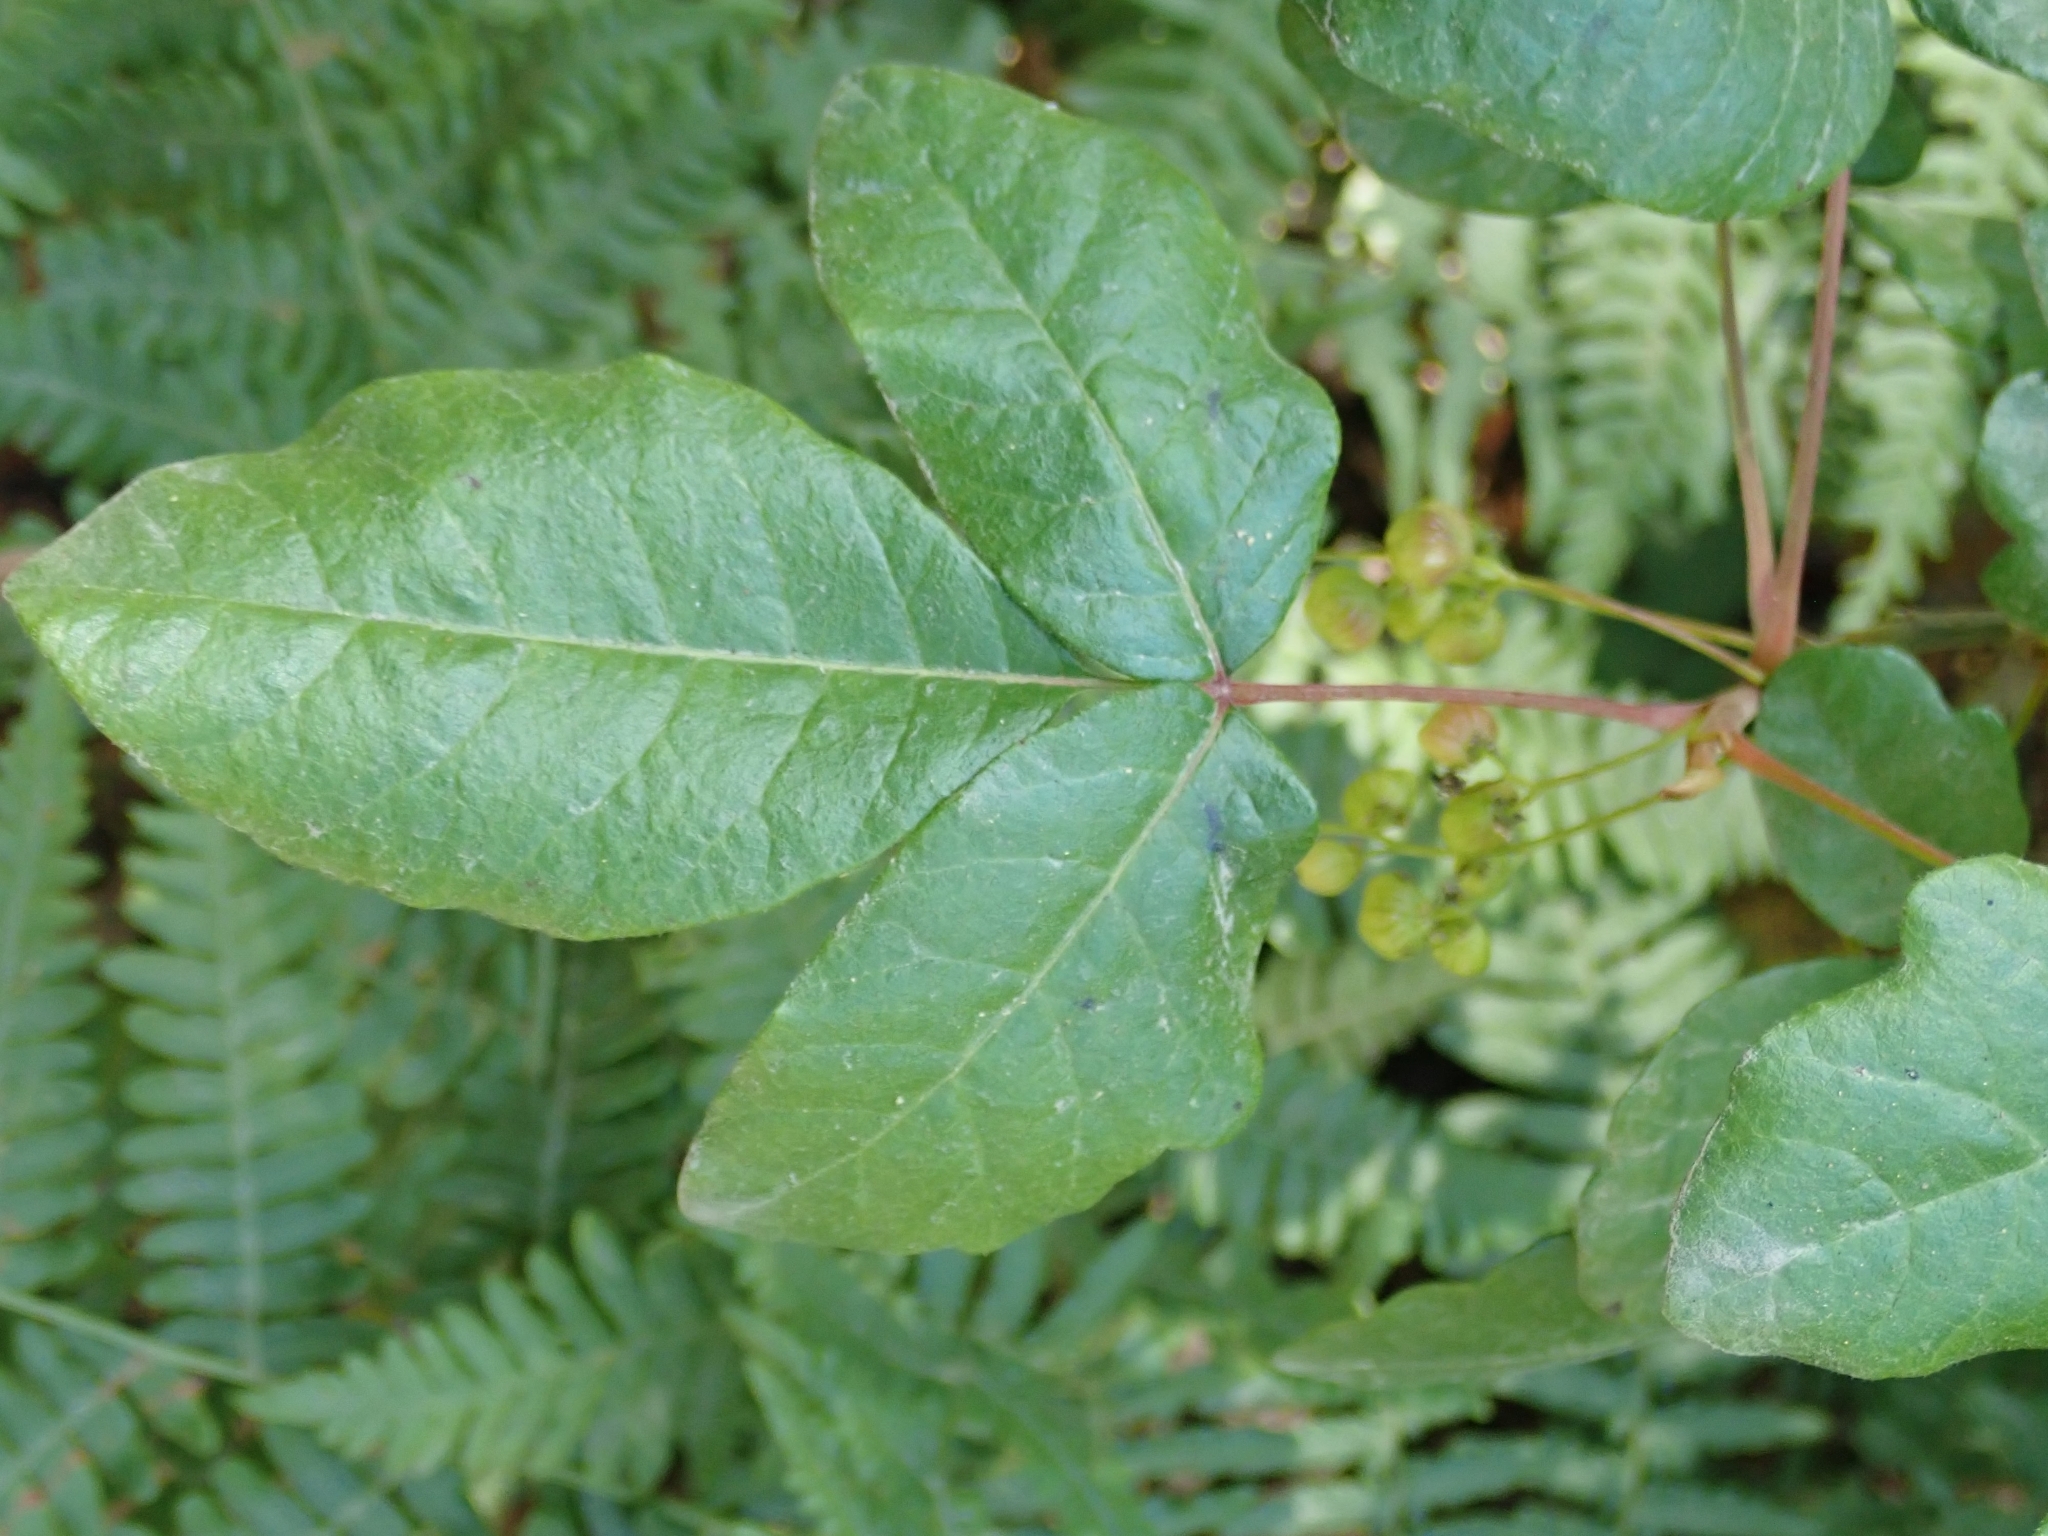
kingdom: Plantae
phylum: Tracheophyta
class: Magnoliopsida
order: Sapindales
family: Anacardiaceae
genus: Toxicodendron
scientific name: Toxicodendron diversilobum
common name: Pacific poison-oak
